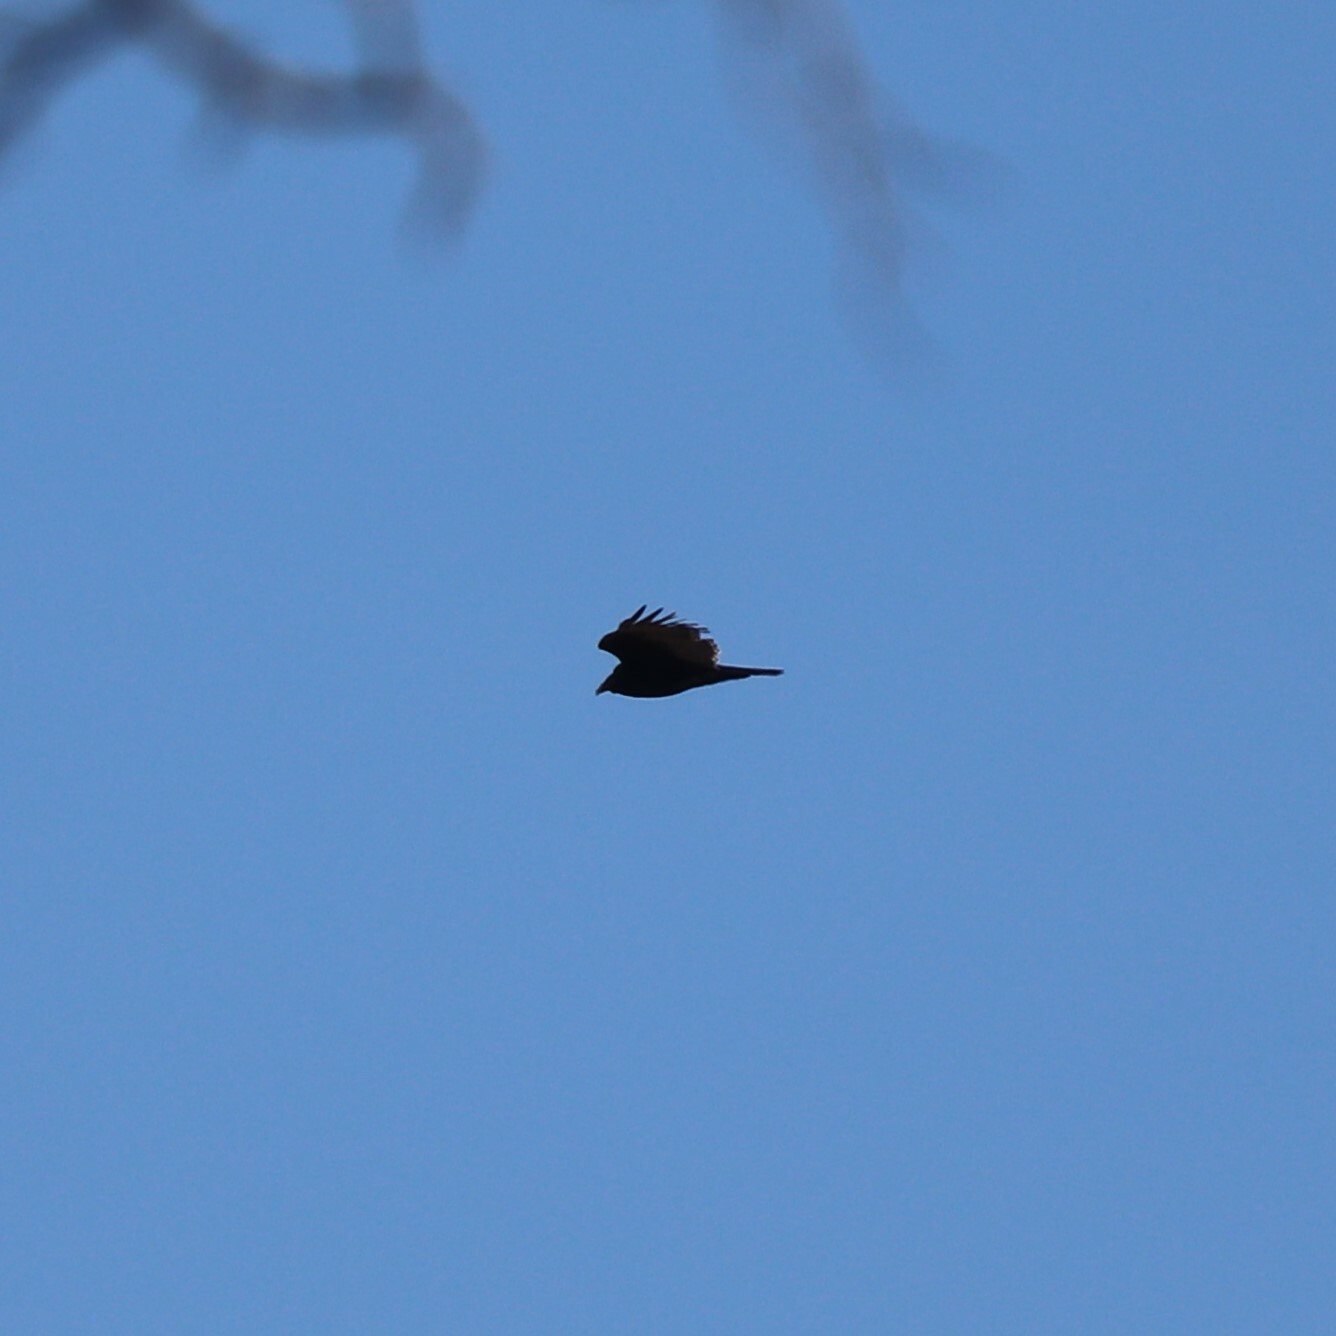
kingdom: Animalia
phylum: Chordata
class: Aves
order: Accipitriformes
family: Cathartidae
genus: Cathartes
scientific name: Cathartes aura
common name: Turkey vulture
